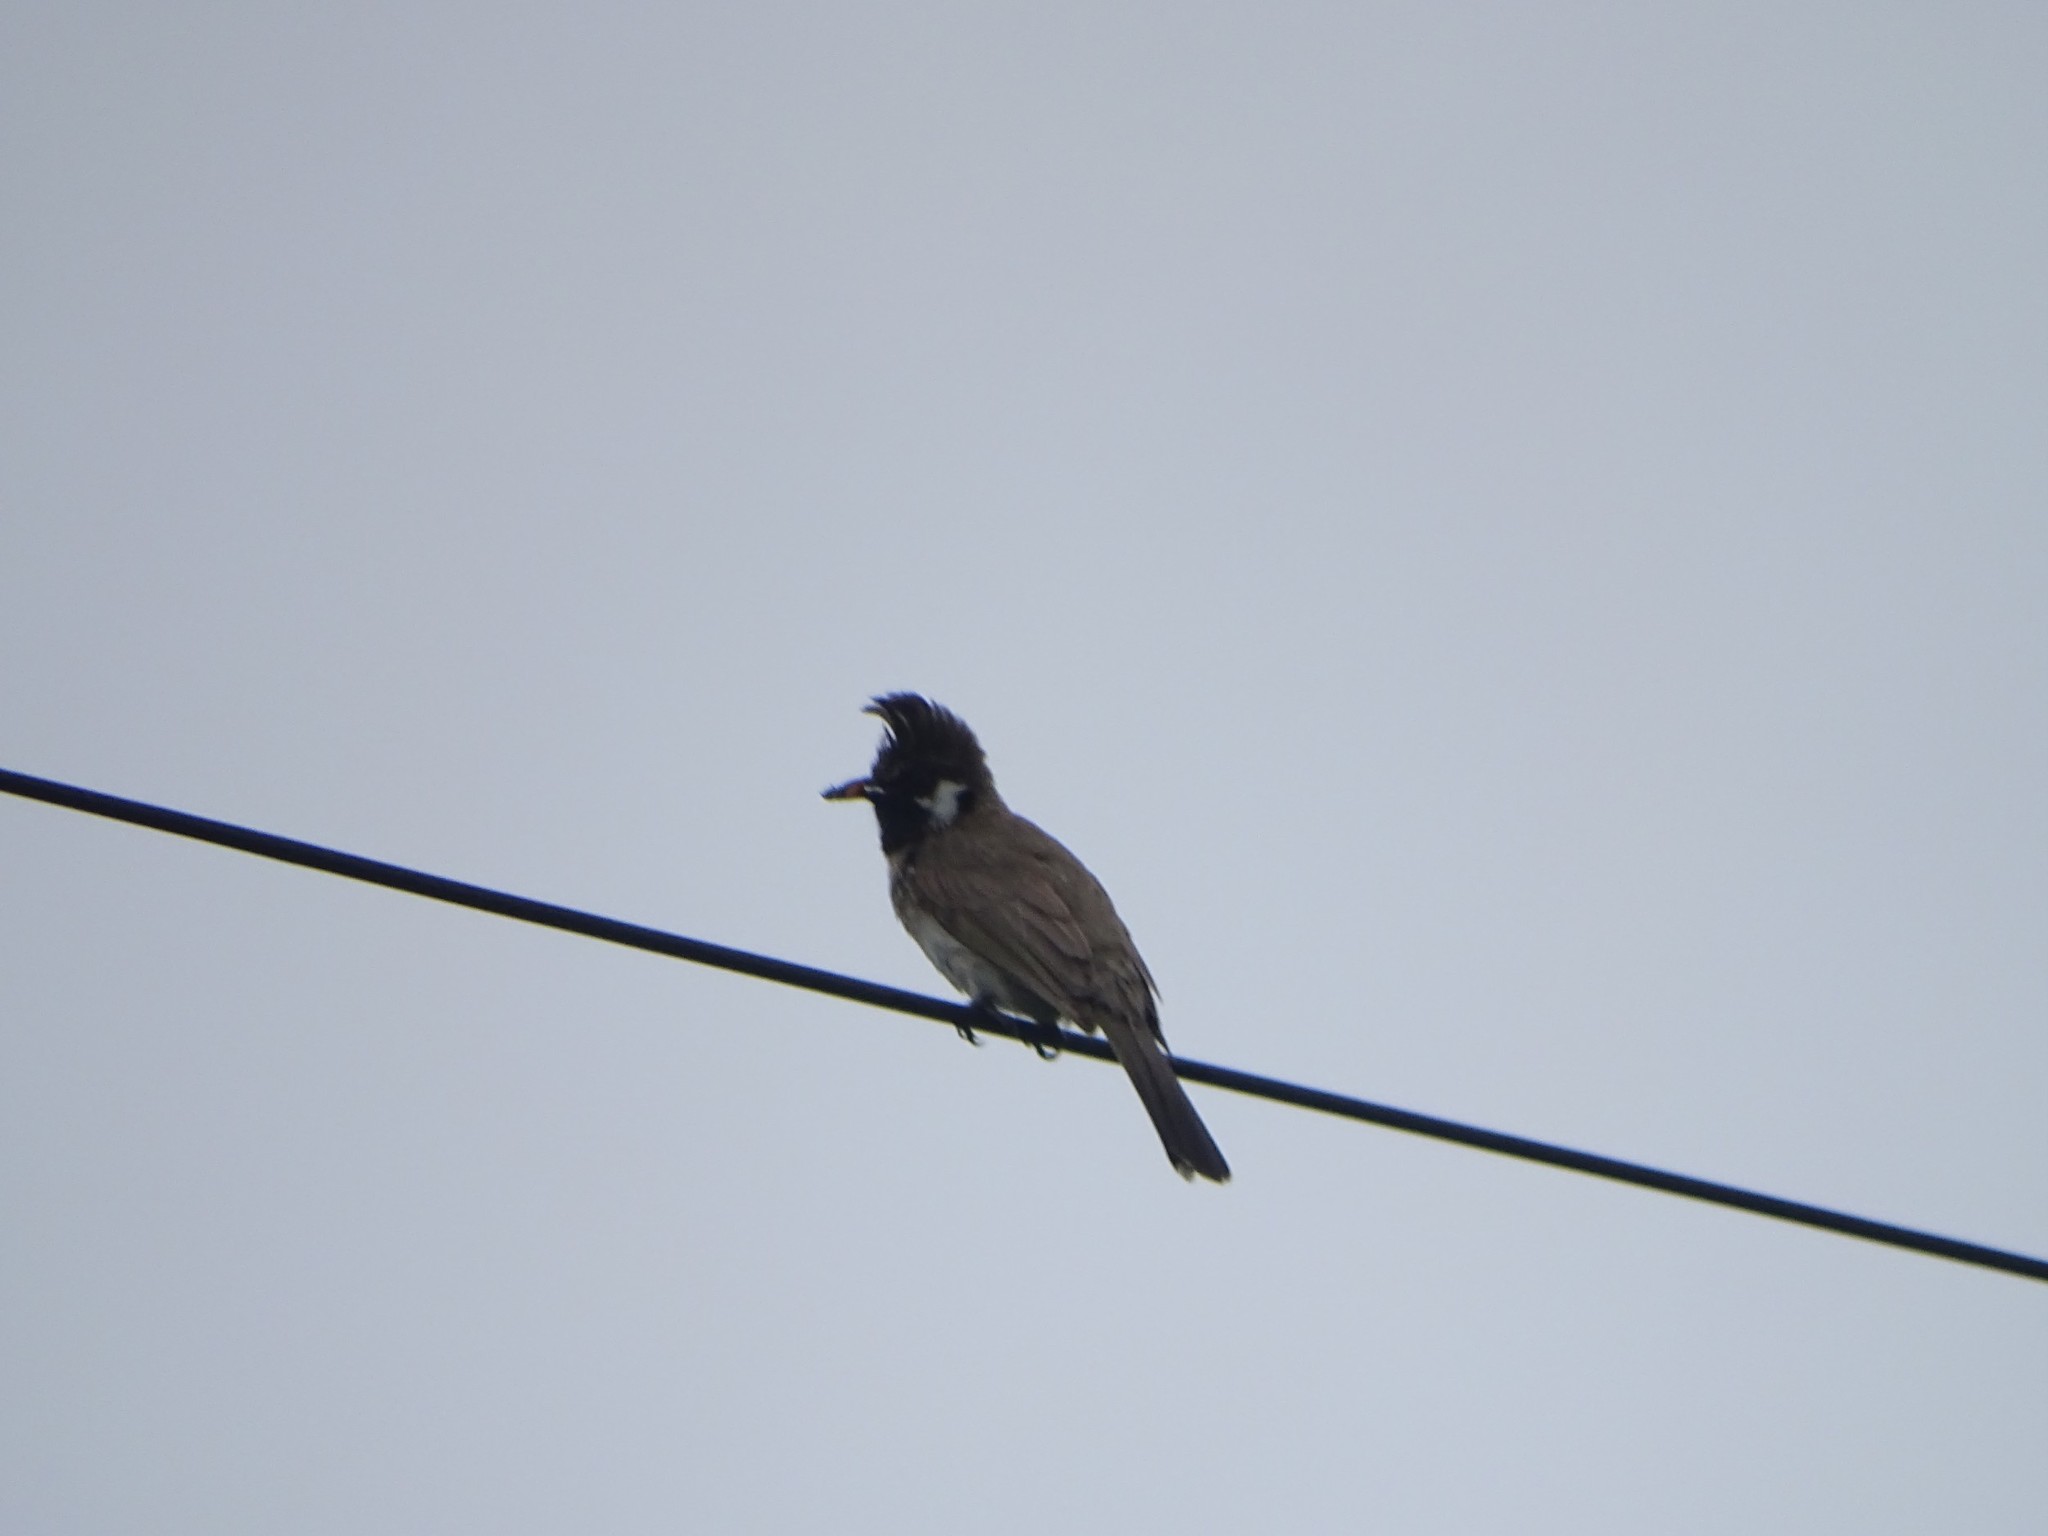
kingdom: Animalia
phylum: Chordata
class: Aves
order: Passeriformes
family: Pycnonotidae
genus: Pycnonotus
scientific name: Pycnonotus leucogenys
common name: Himalayan bulbul
